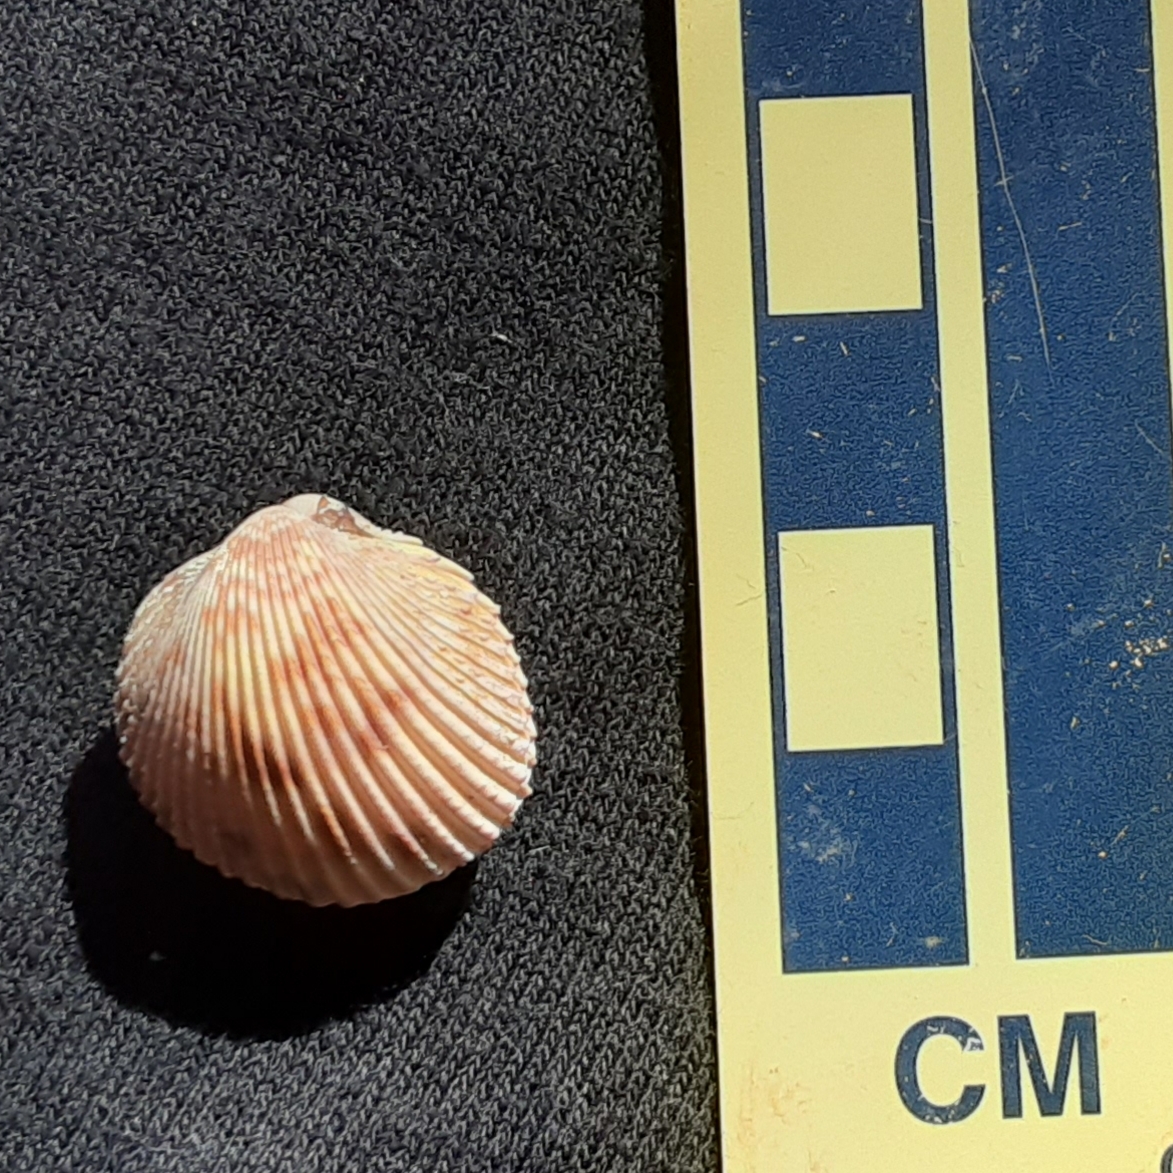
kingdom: Animalia
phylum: Mollusca
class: Bivalvia
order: Cardiida
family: Cardiidae
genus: Dallocardia
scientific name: Dallocardia muricata
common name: Yellow pricklycockle
